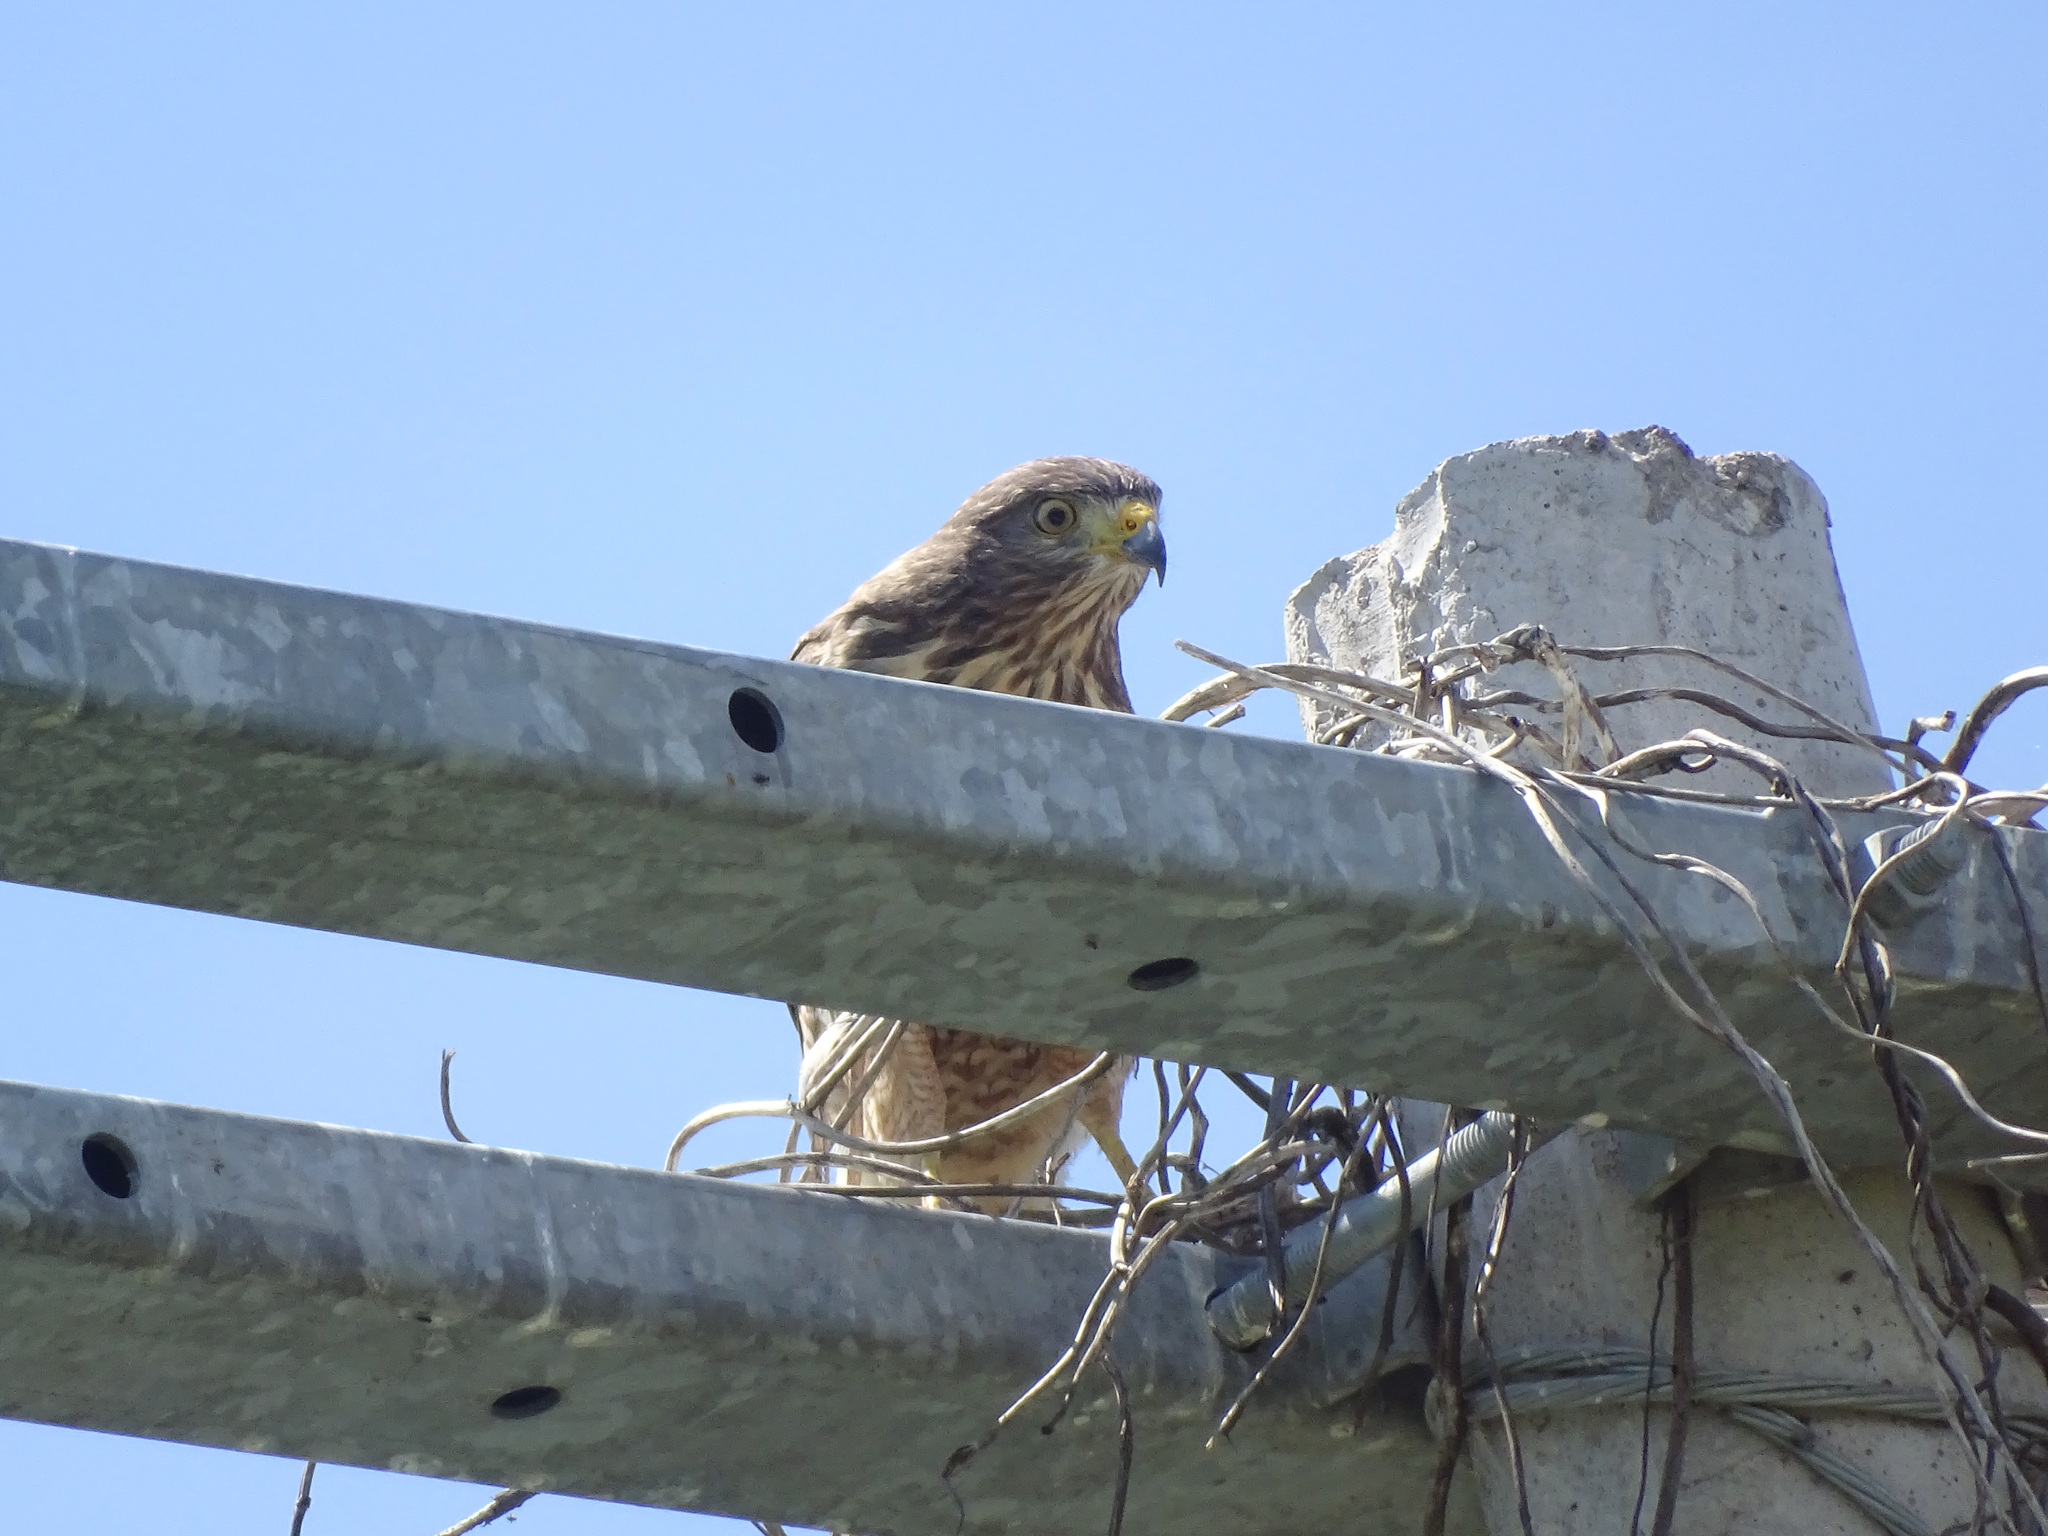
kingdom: Animalia
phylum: Chordata
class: Aves
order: Accipitriformes
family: Accipitridae
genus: Rupornis
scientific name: Rupornis magnirostris
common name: Roadside hawk
